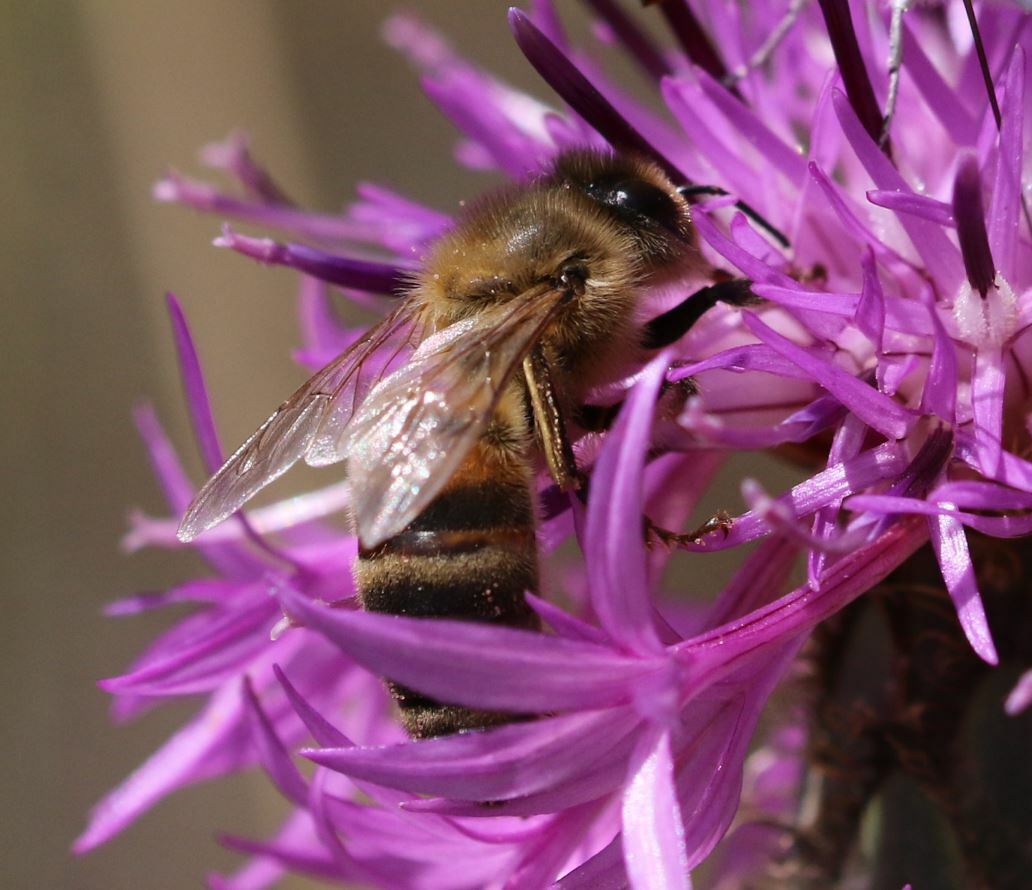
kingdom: Animalia
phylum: Arthropoda
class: Insecta
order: Hymenoptera
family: Apidae
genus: Apis
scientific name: Apis mellifera
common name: Honey bee
